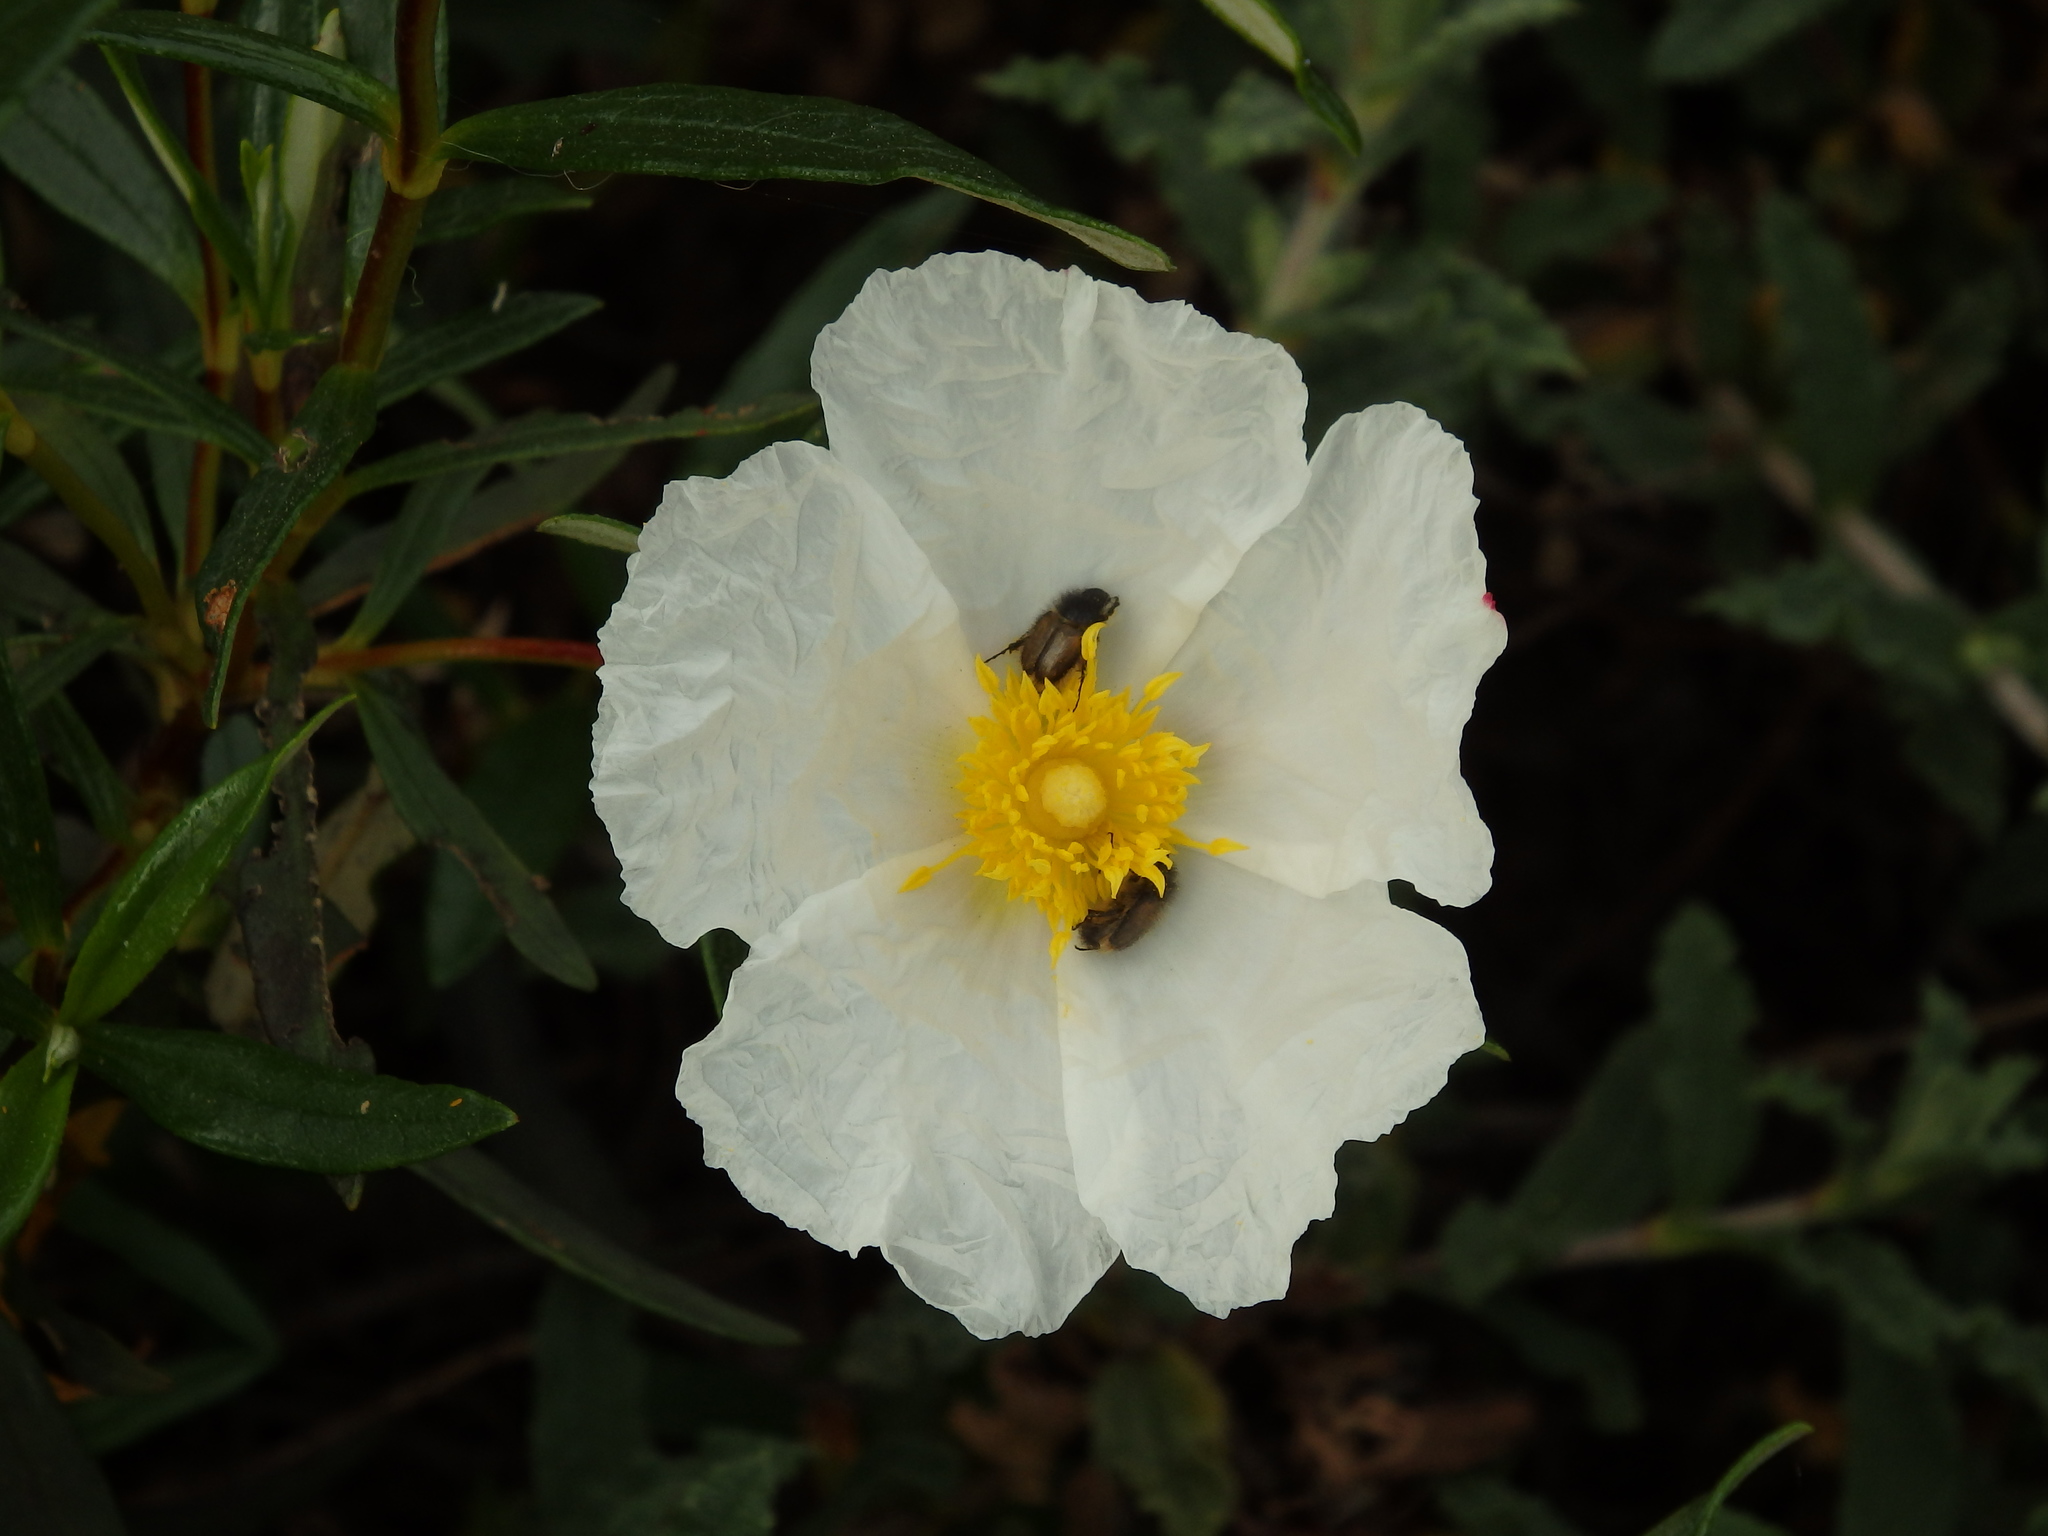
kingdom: Plantae
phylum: Tracheophyta
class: Magnoliopsida
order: Malvales
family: Cistaceae
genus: Cistus
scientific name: Cistus ladanifer
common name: Common gum cistus
